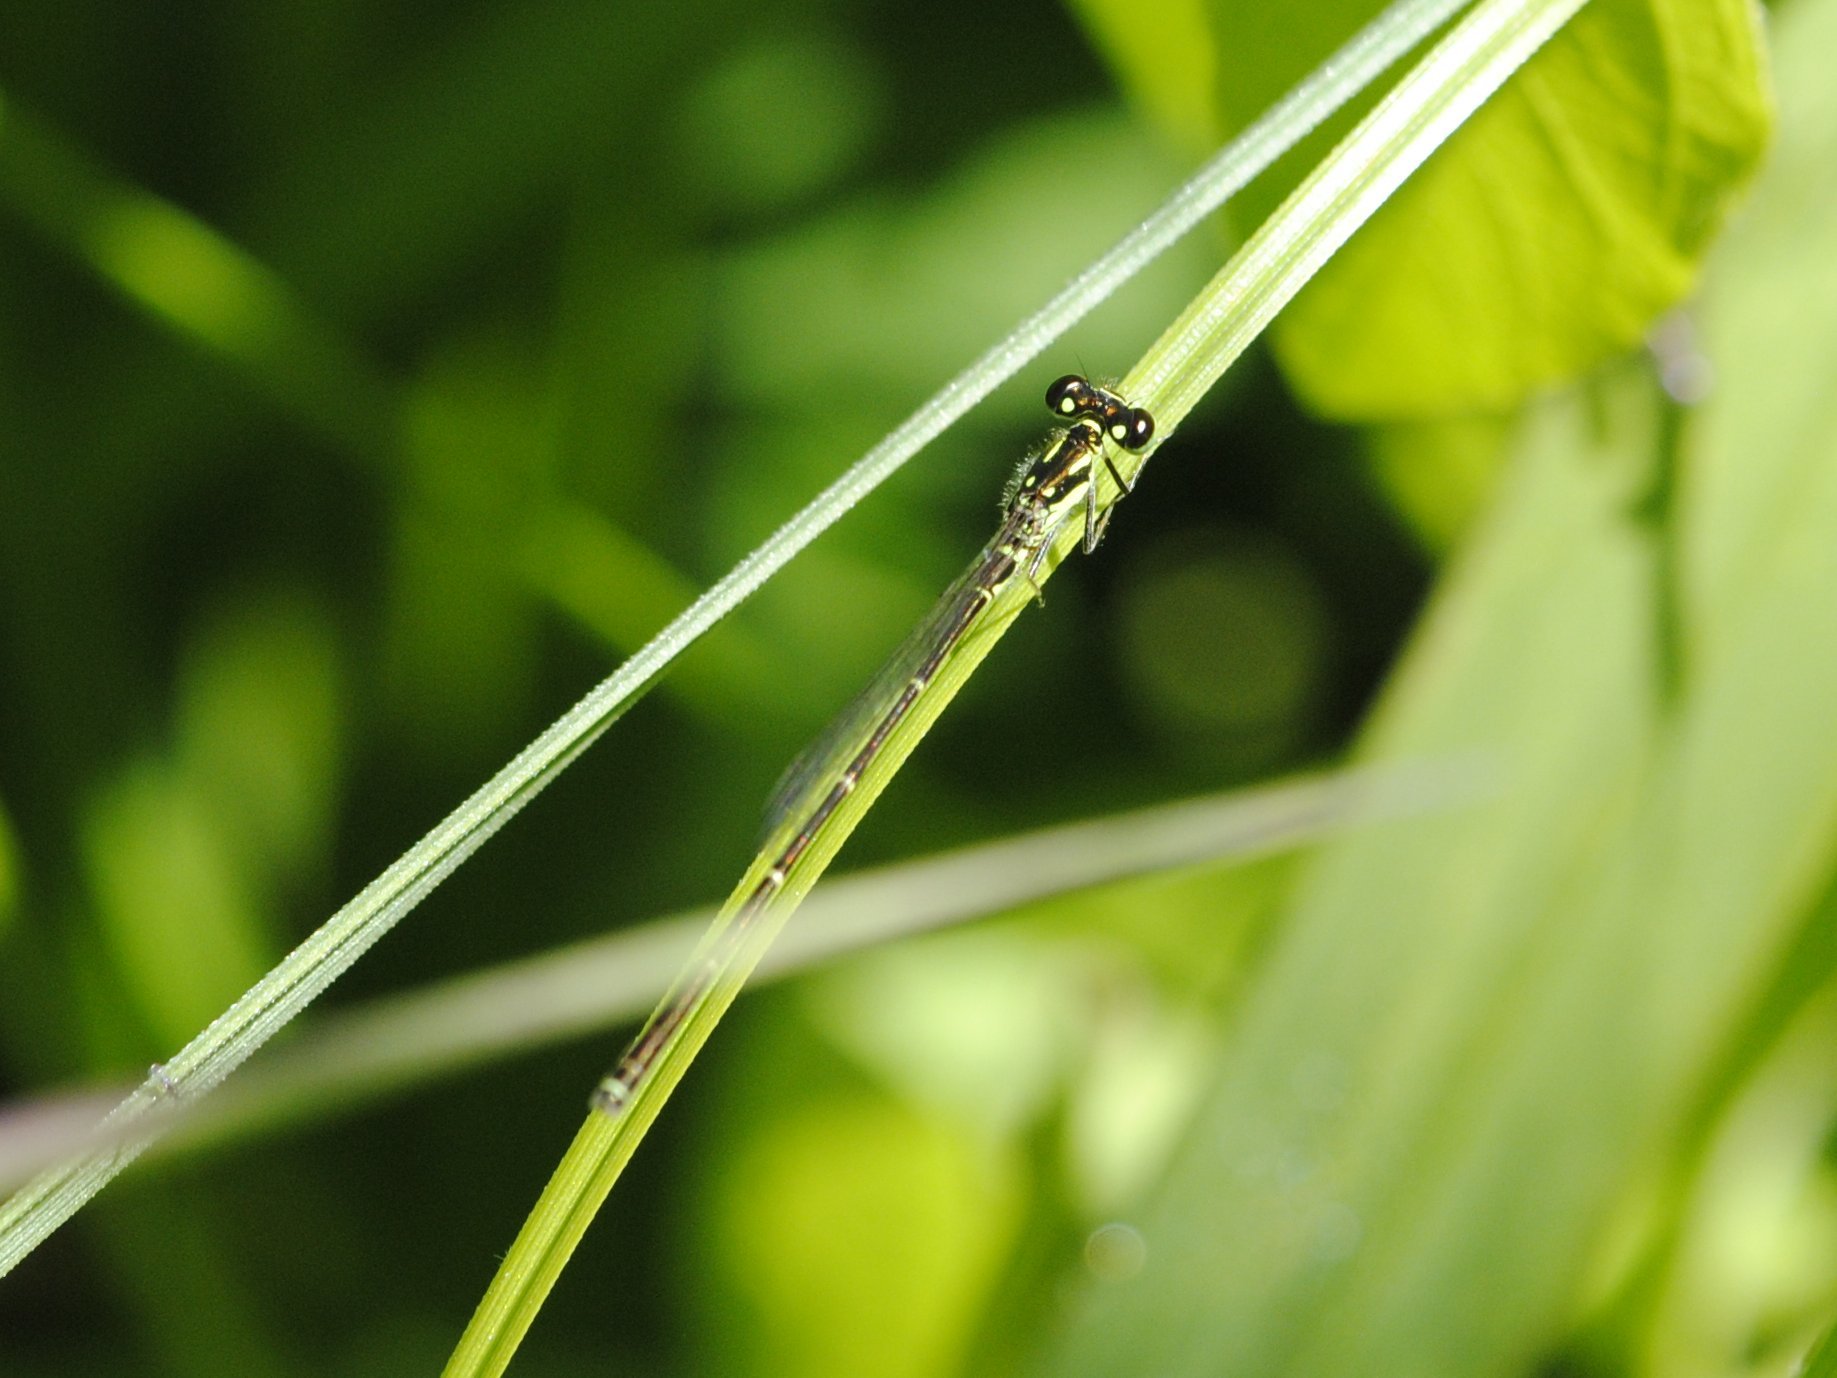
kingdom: Animalia
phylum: Arthropoda
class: Insecta
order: Odonata
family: Coenagrionidae
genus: Ischnura
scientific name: Ischnura posita
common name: Fragile forktail
